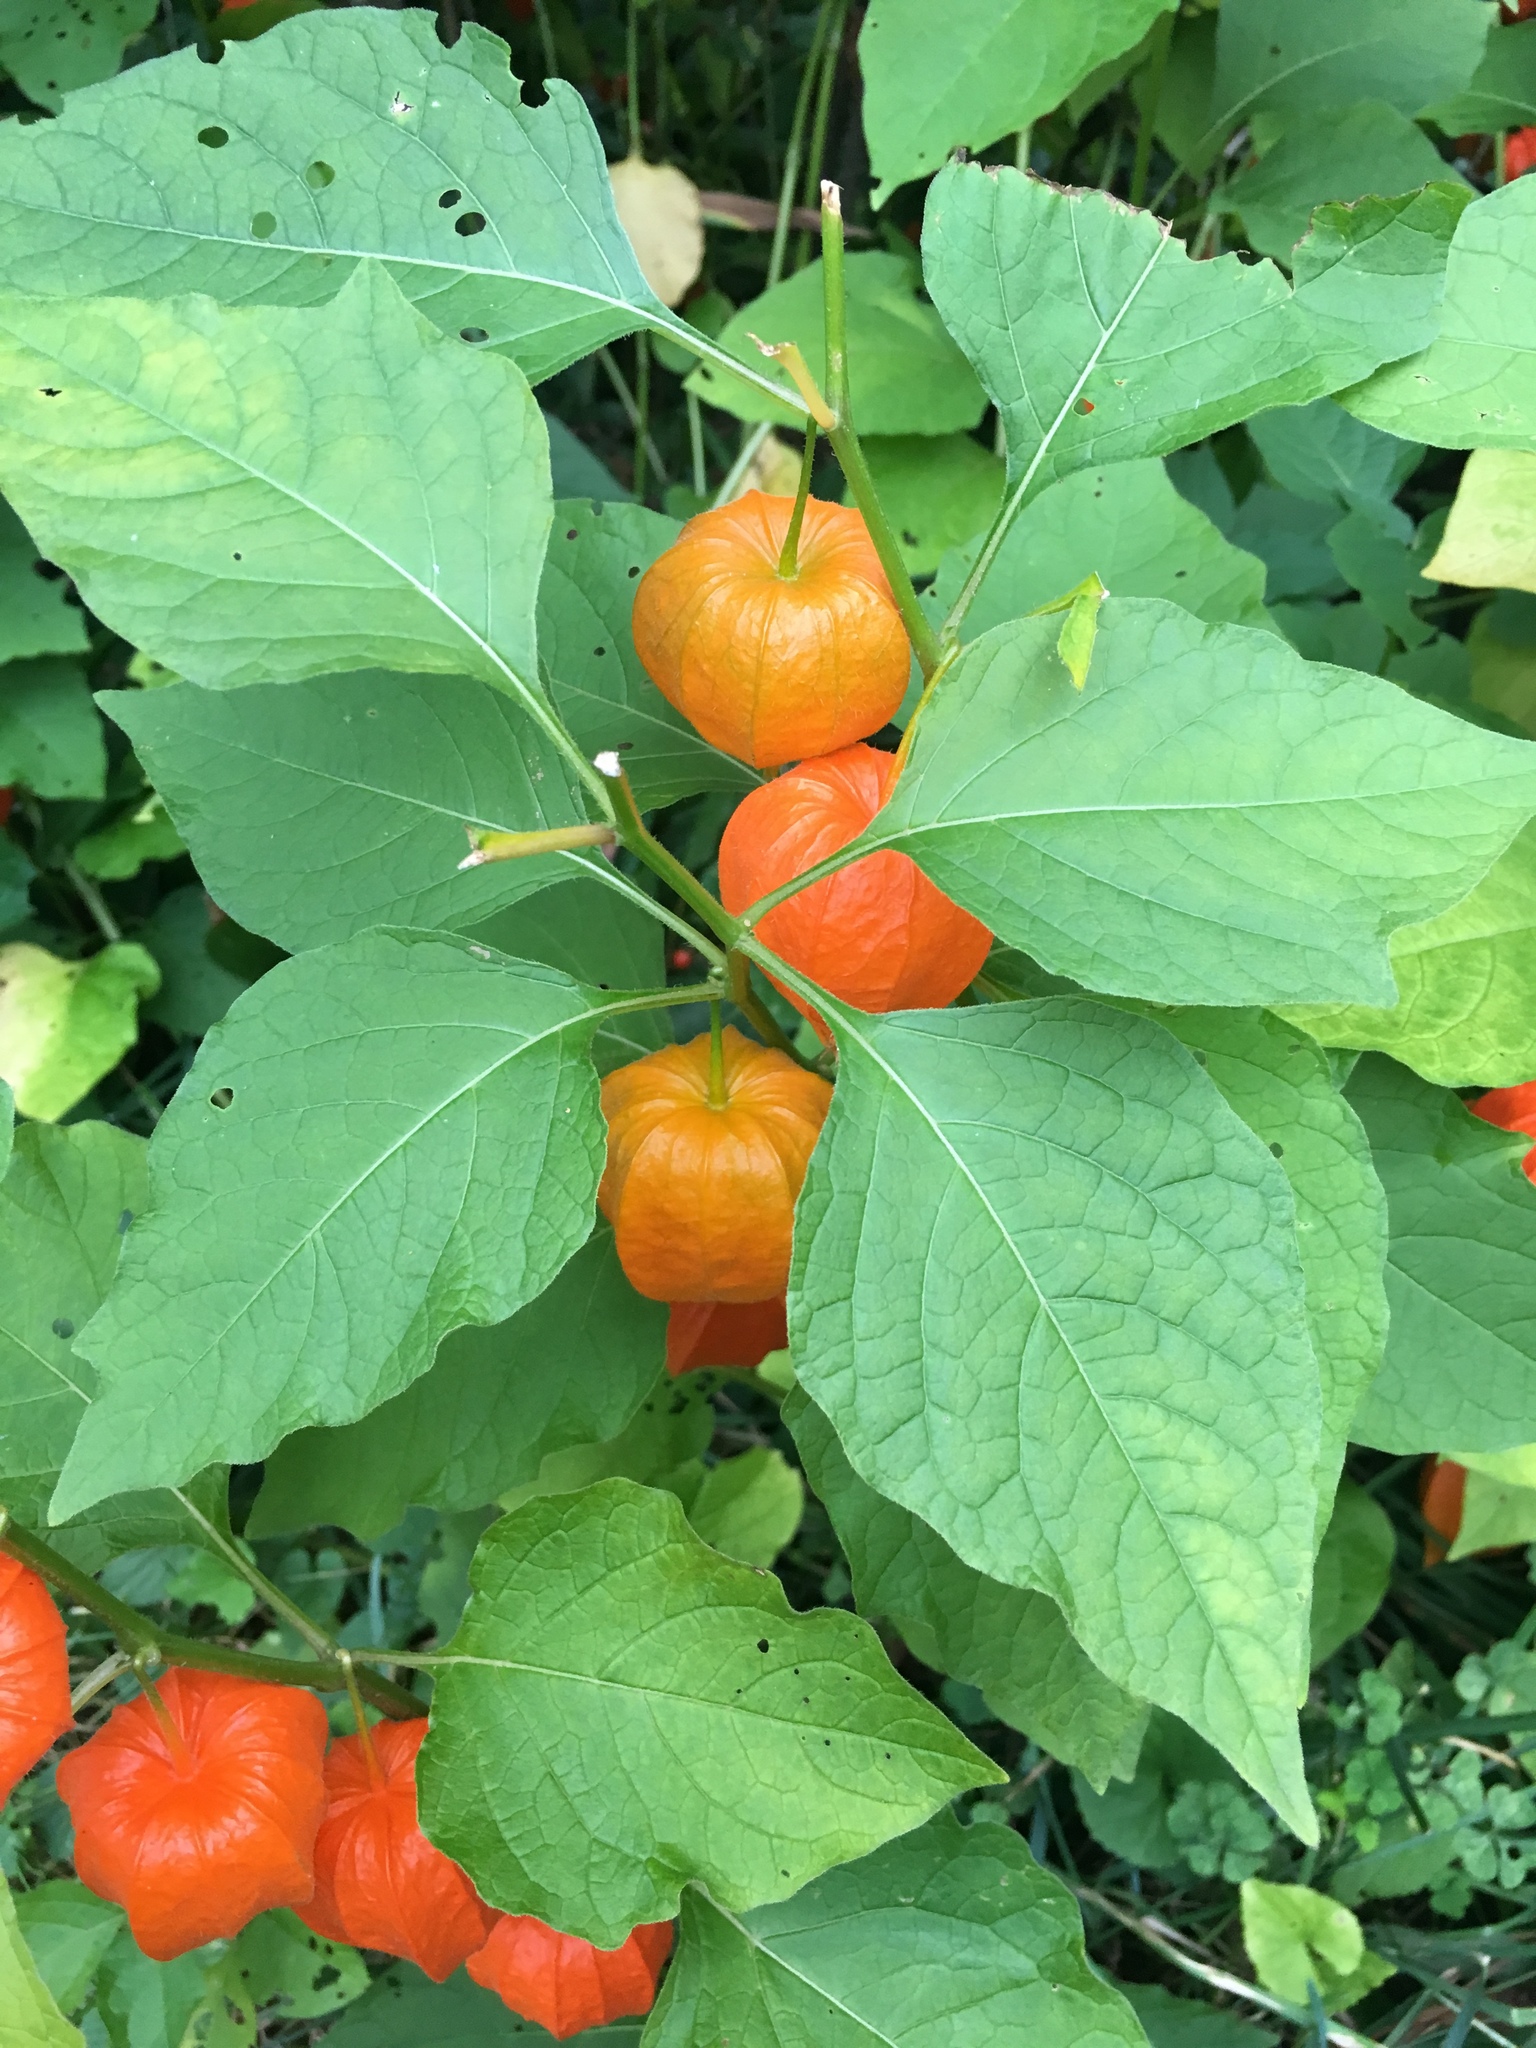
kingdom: Plantae
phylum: Tracheophyta
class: Magnoliopsida
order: Solanales
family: Solanaceae
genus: Alkekengi
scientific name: Alkekengi officinarum
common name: Japanese-lantern
